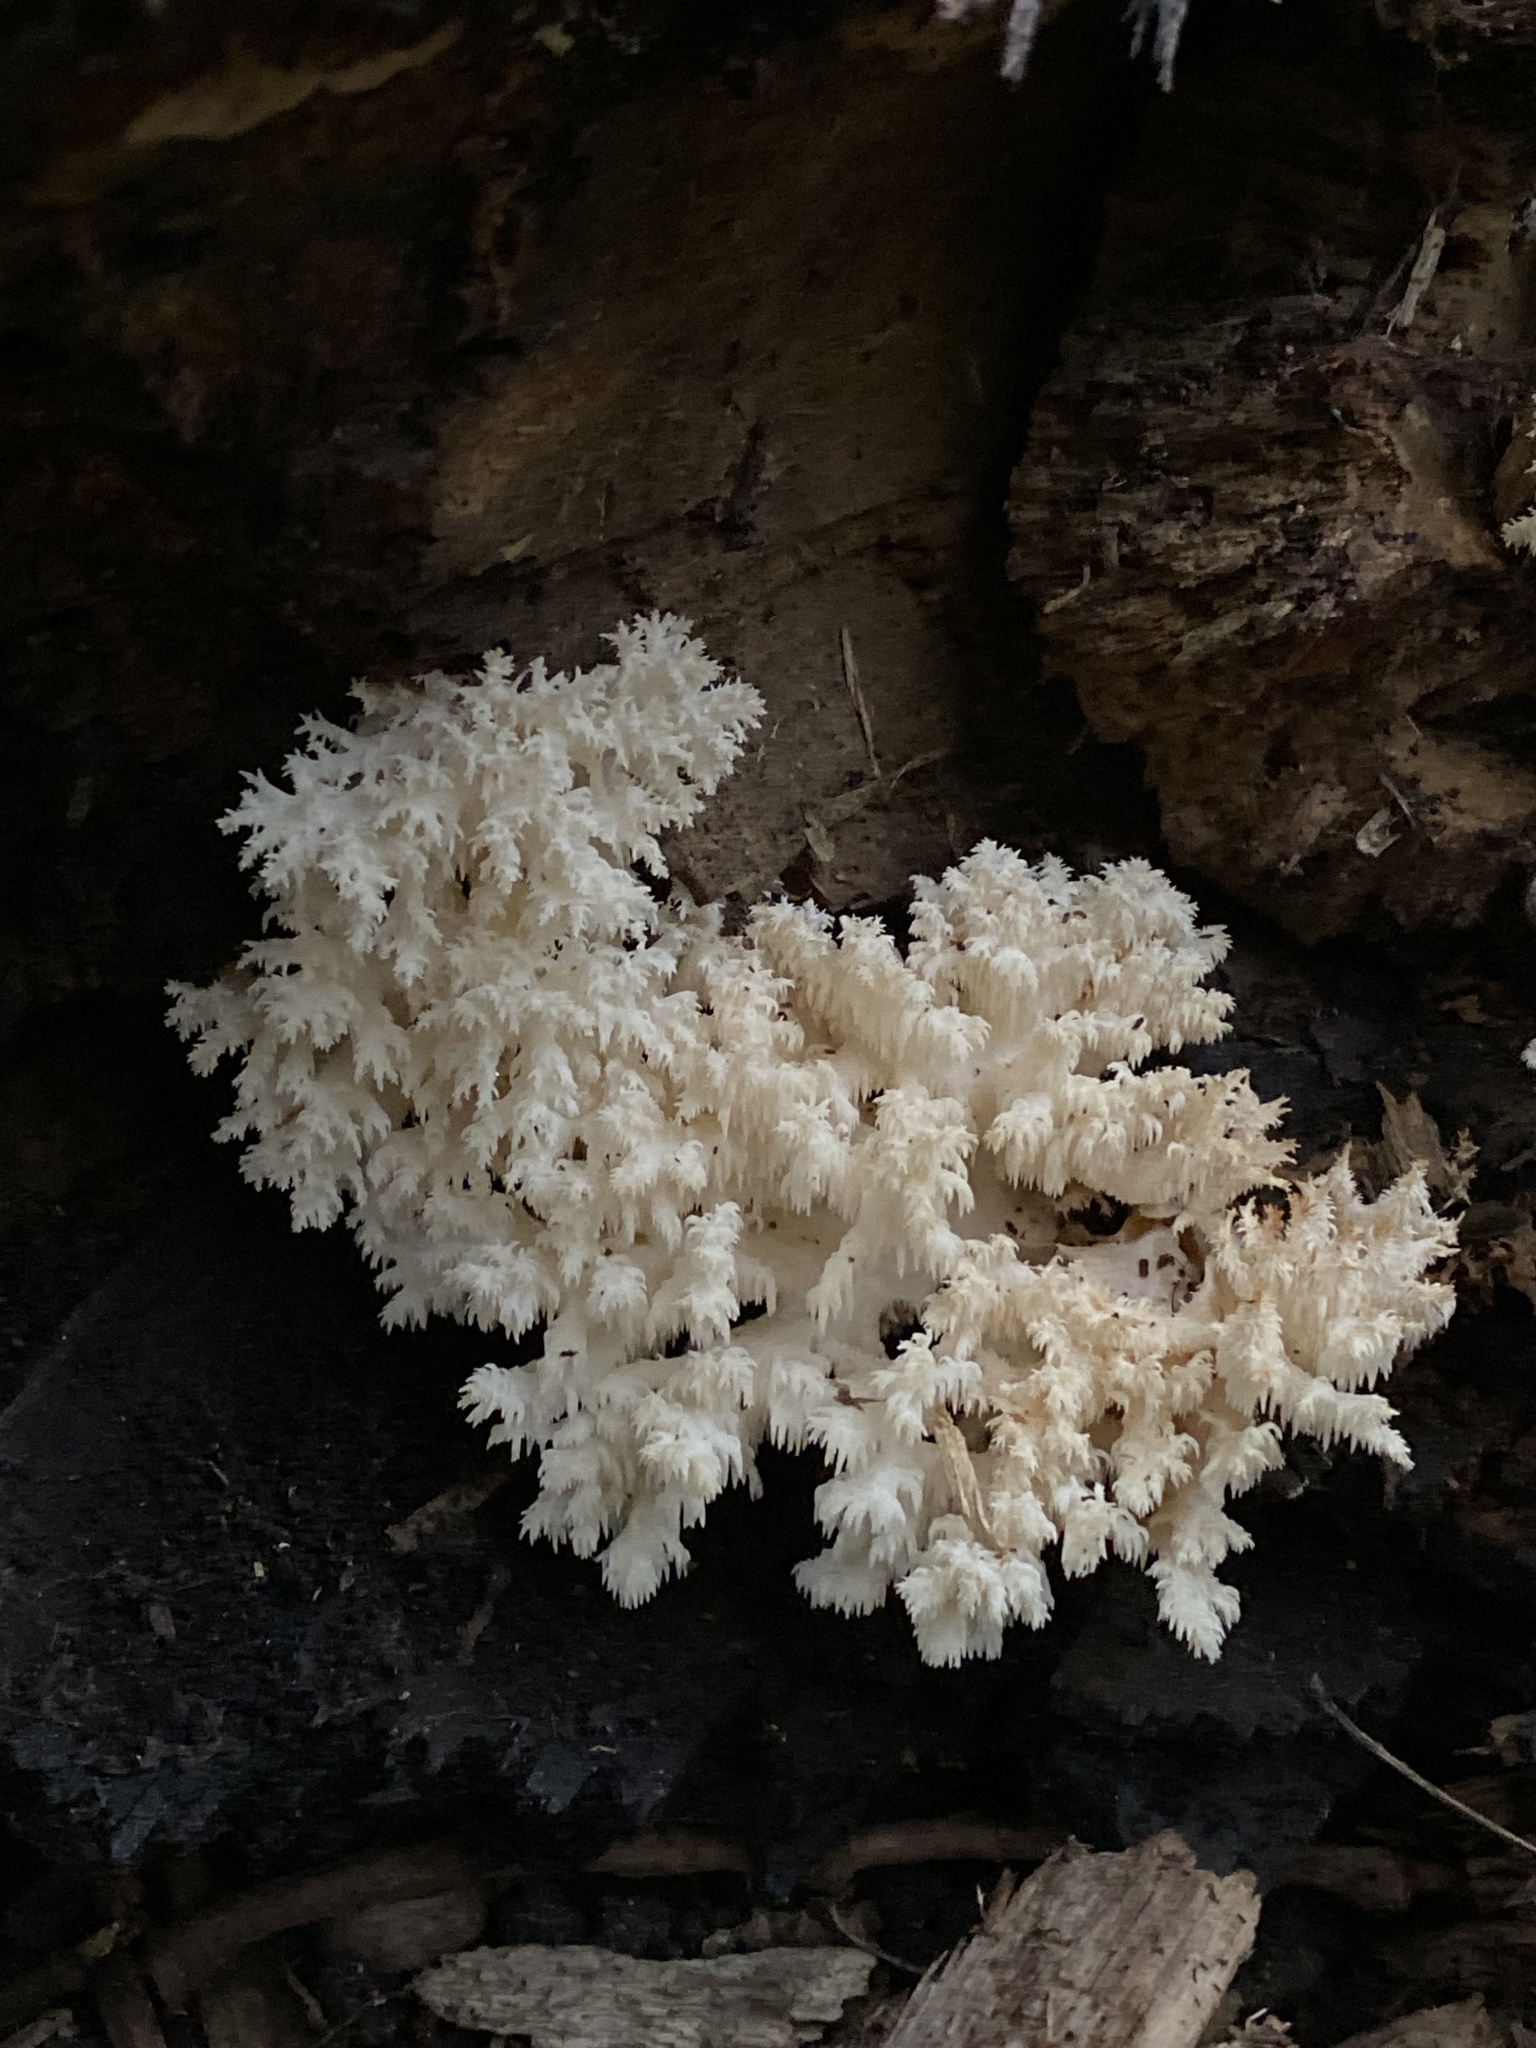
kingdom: Fungi
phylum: Basidiomycota
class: Agaricomycetes
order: Russulales
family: Hericiaceae
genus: Hericium
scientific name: Hericium coralloides
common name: Coral tooth
